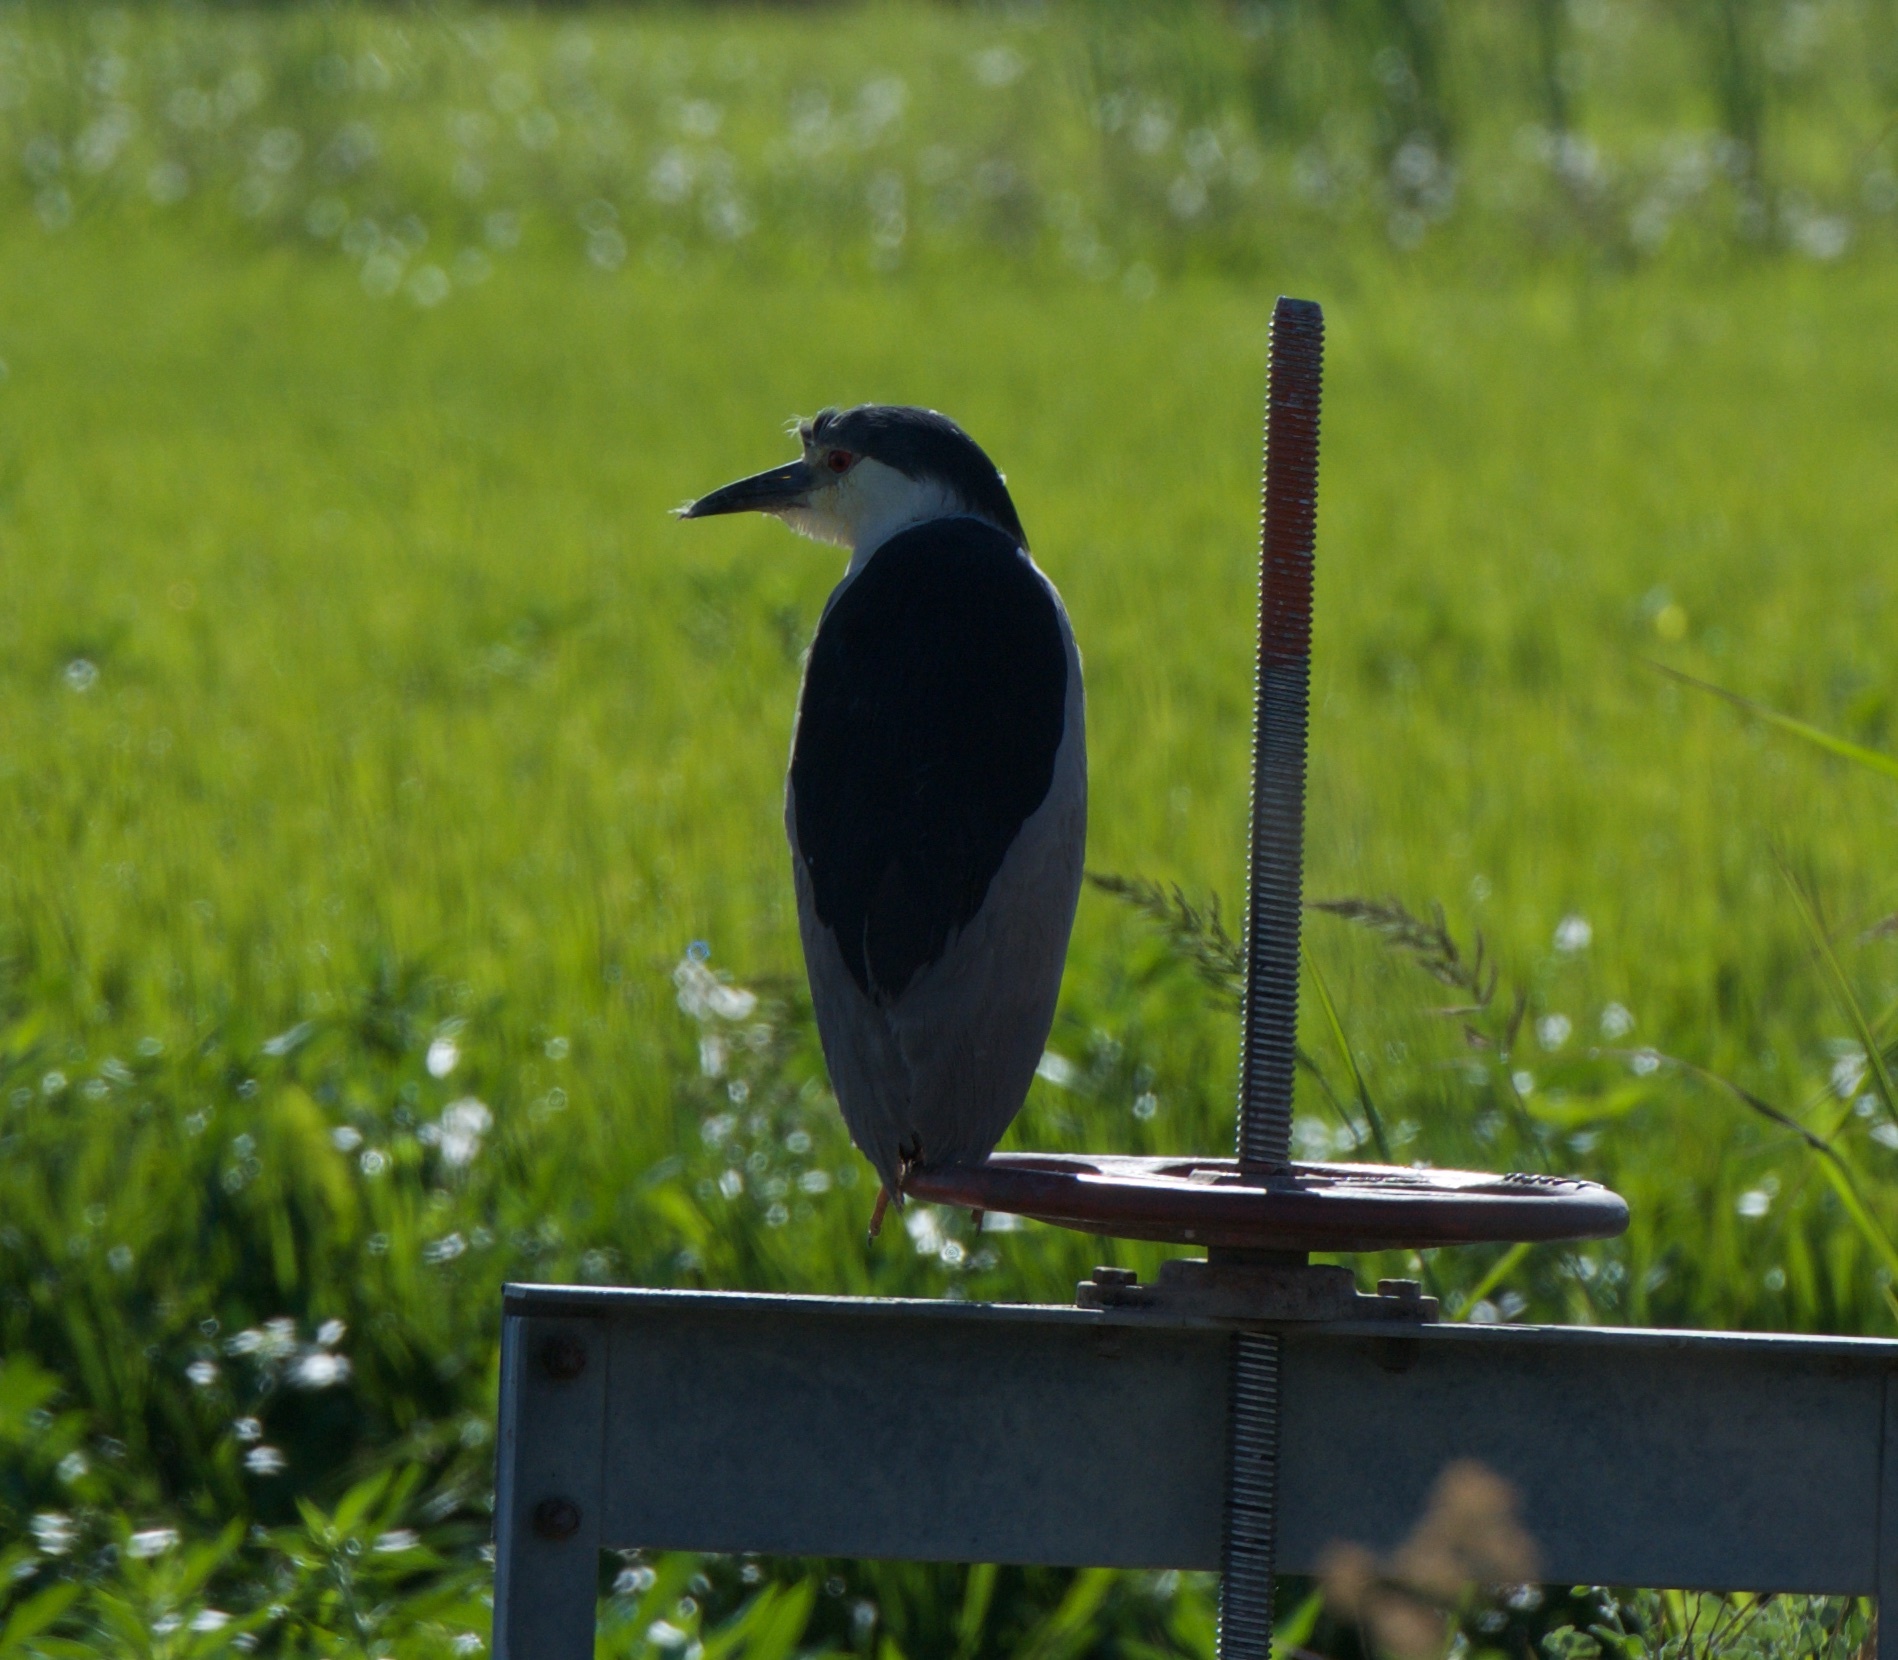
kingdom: Animalia
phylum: Chordata
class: Aves
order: Pelecaniformes
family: Ardeidae
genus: Nycticorax
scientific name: Nycticorax nycticorax
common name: Black-crowned night heron
